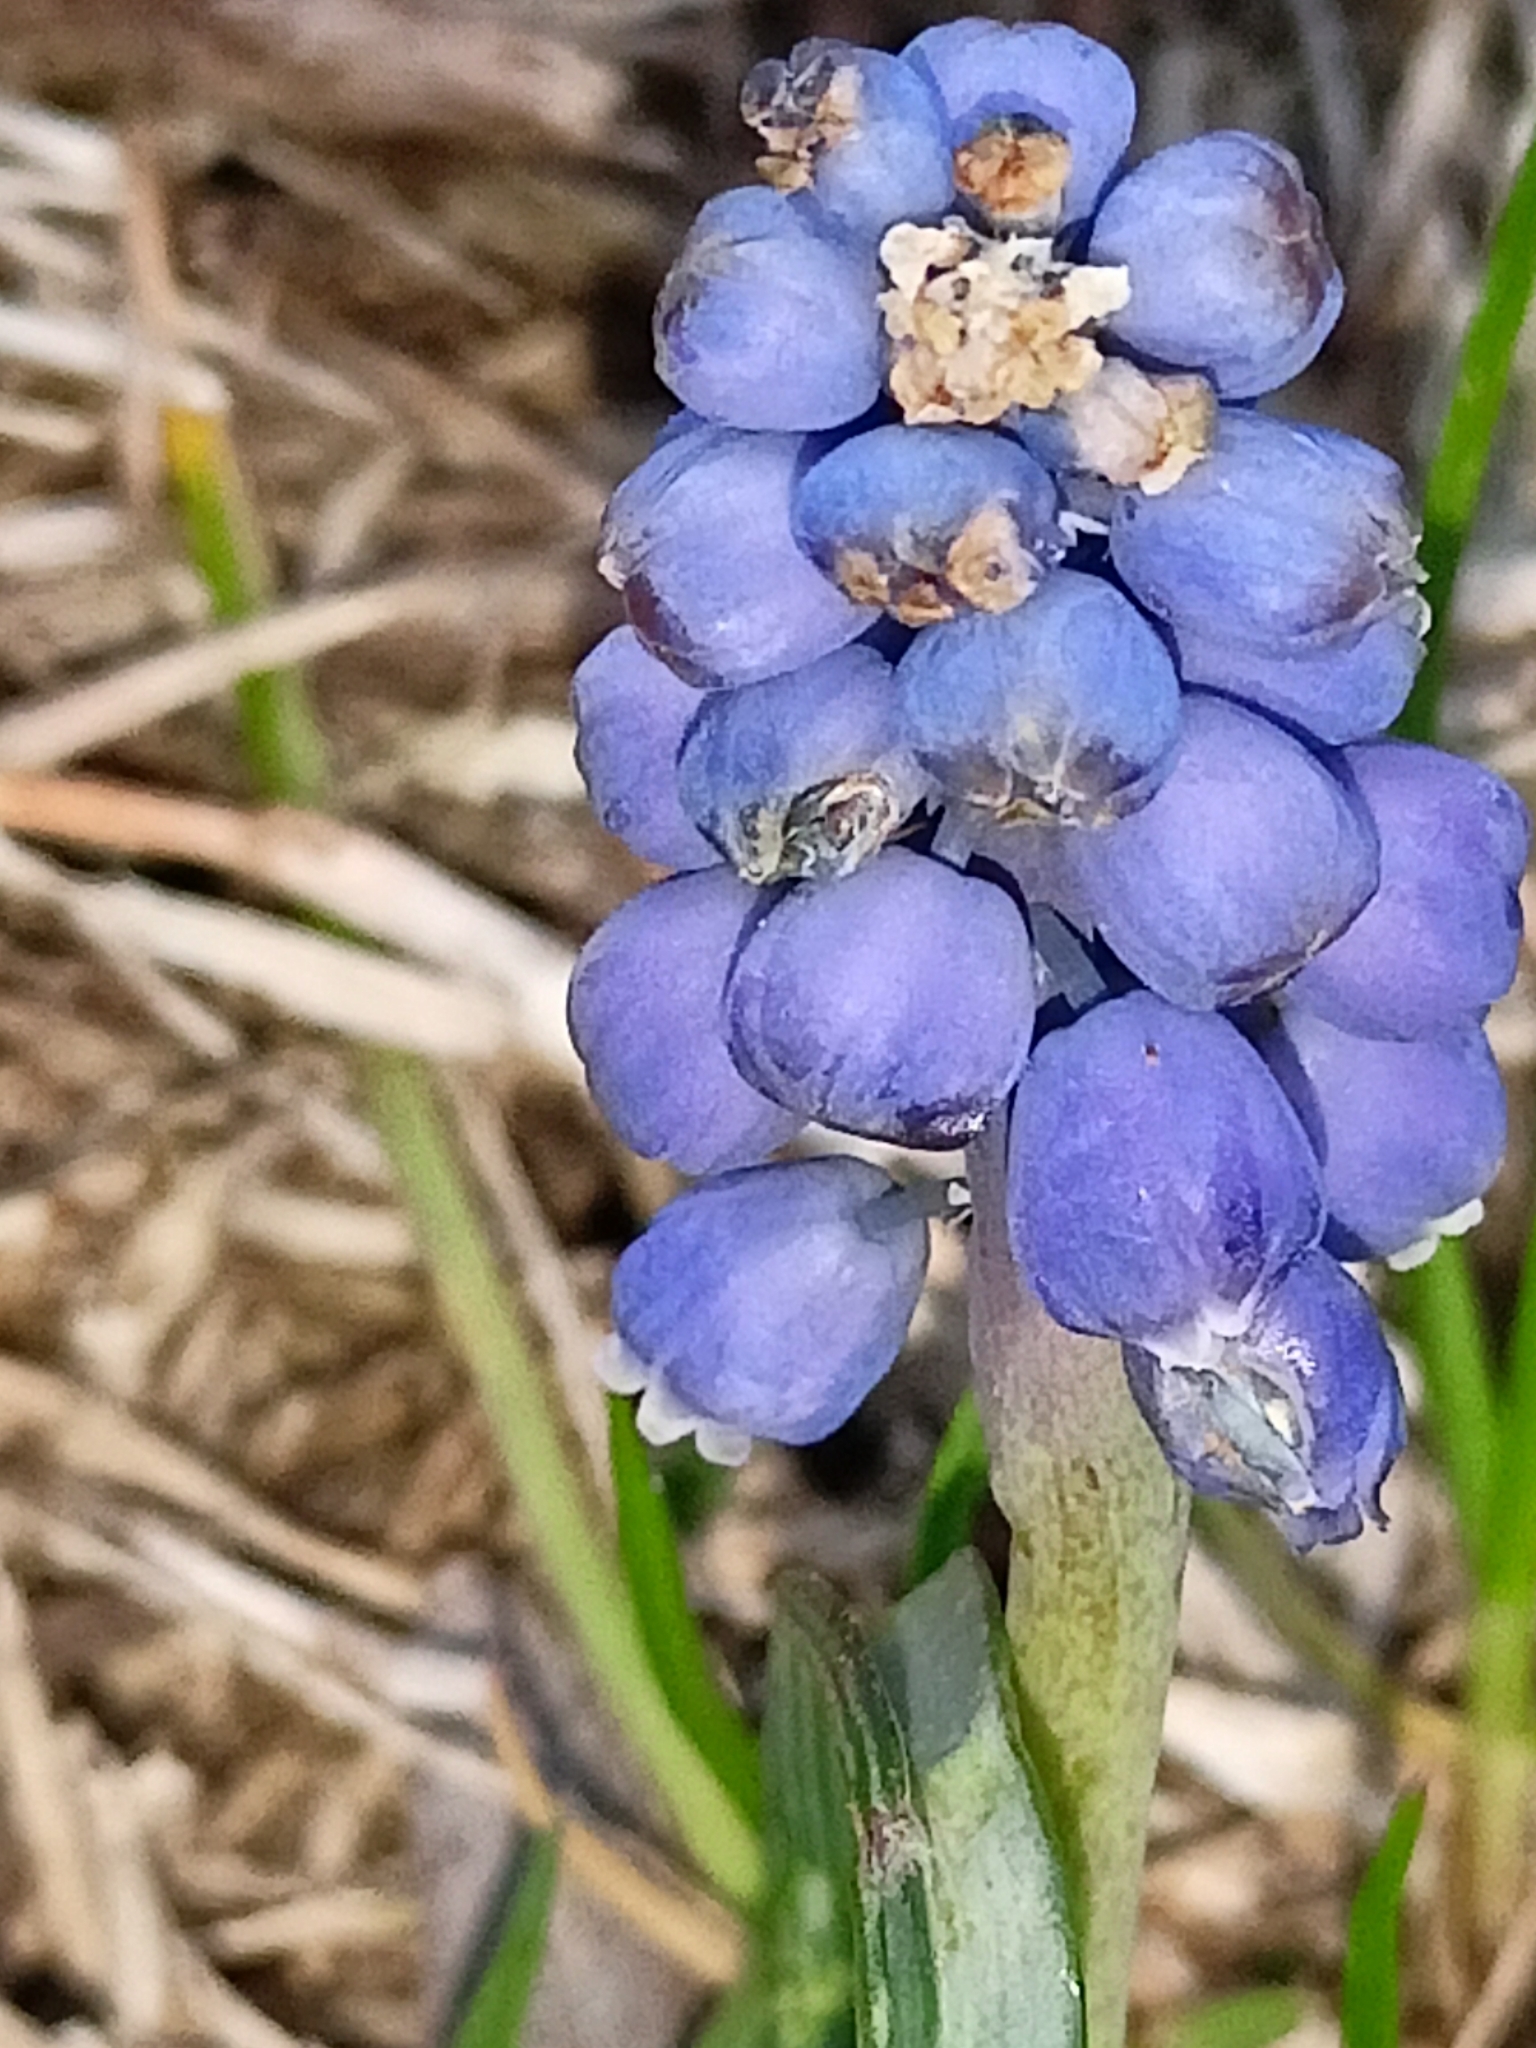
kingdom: Plantae
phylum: Tracheophyta
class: Liliopsida
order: Asparagales
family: Asparagaceae
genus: Muscari
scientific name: Muscari armeniacum
